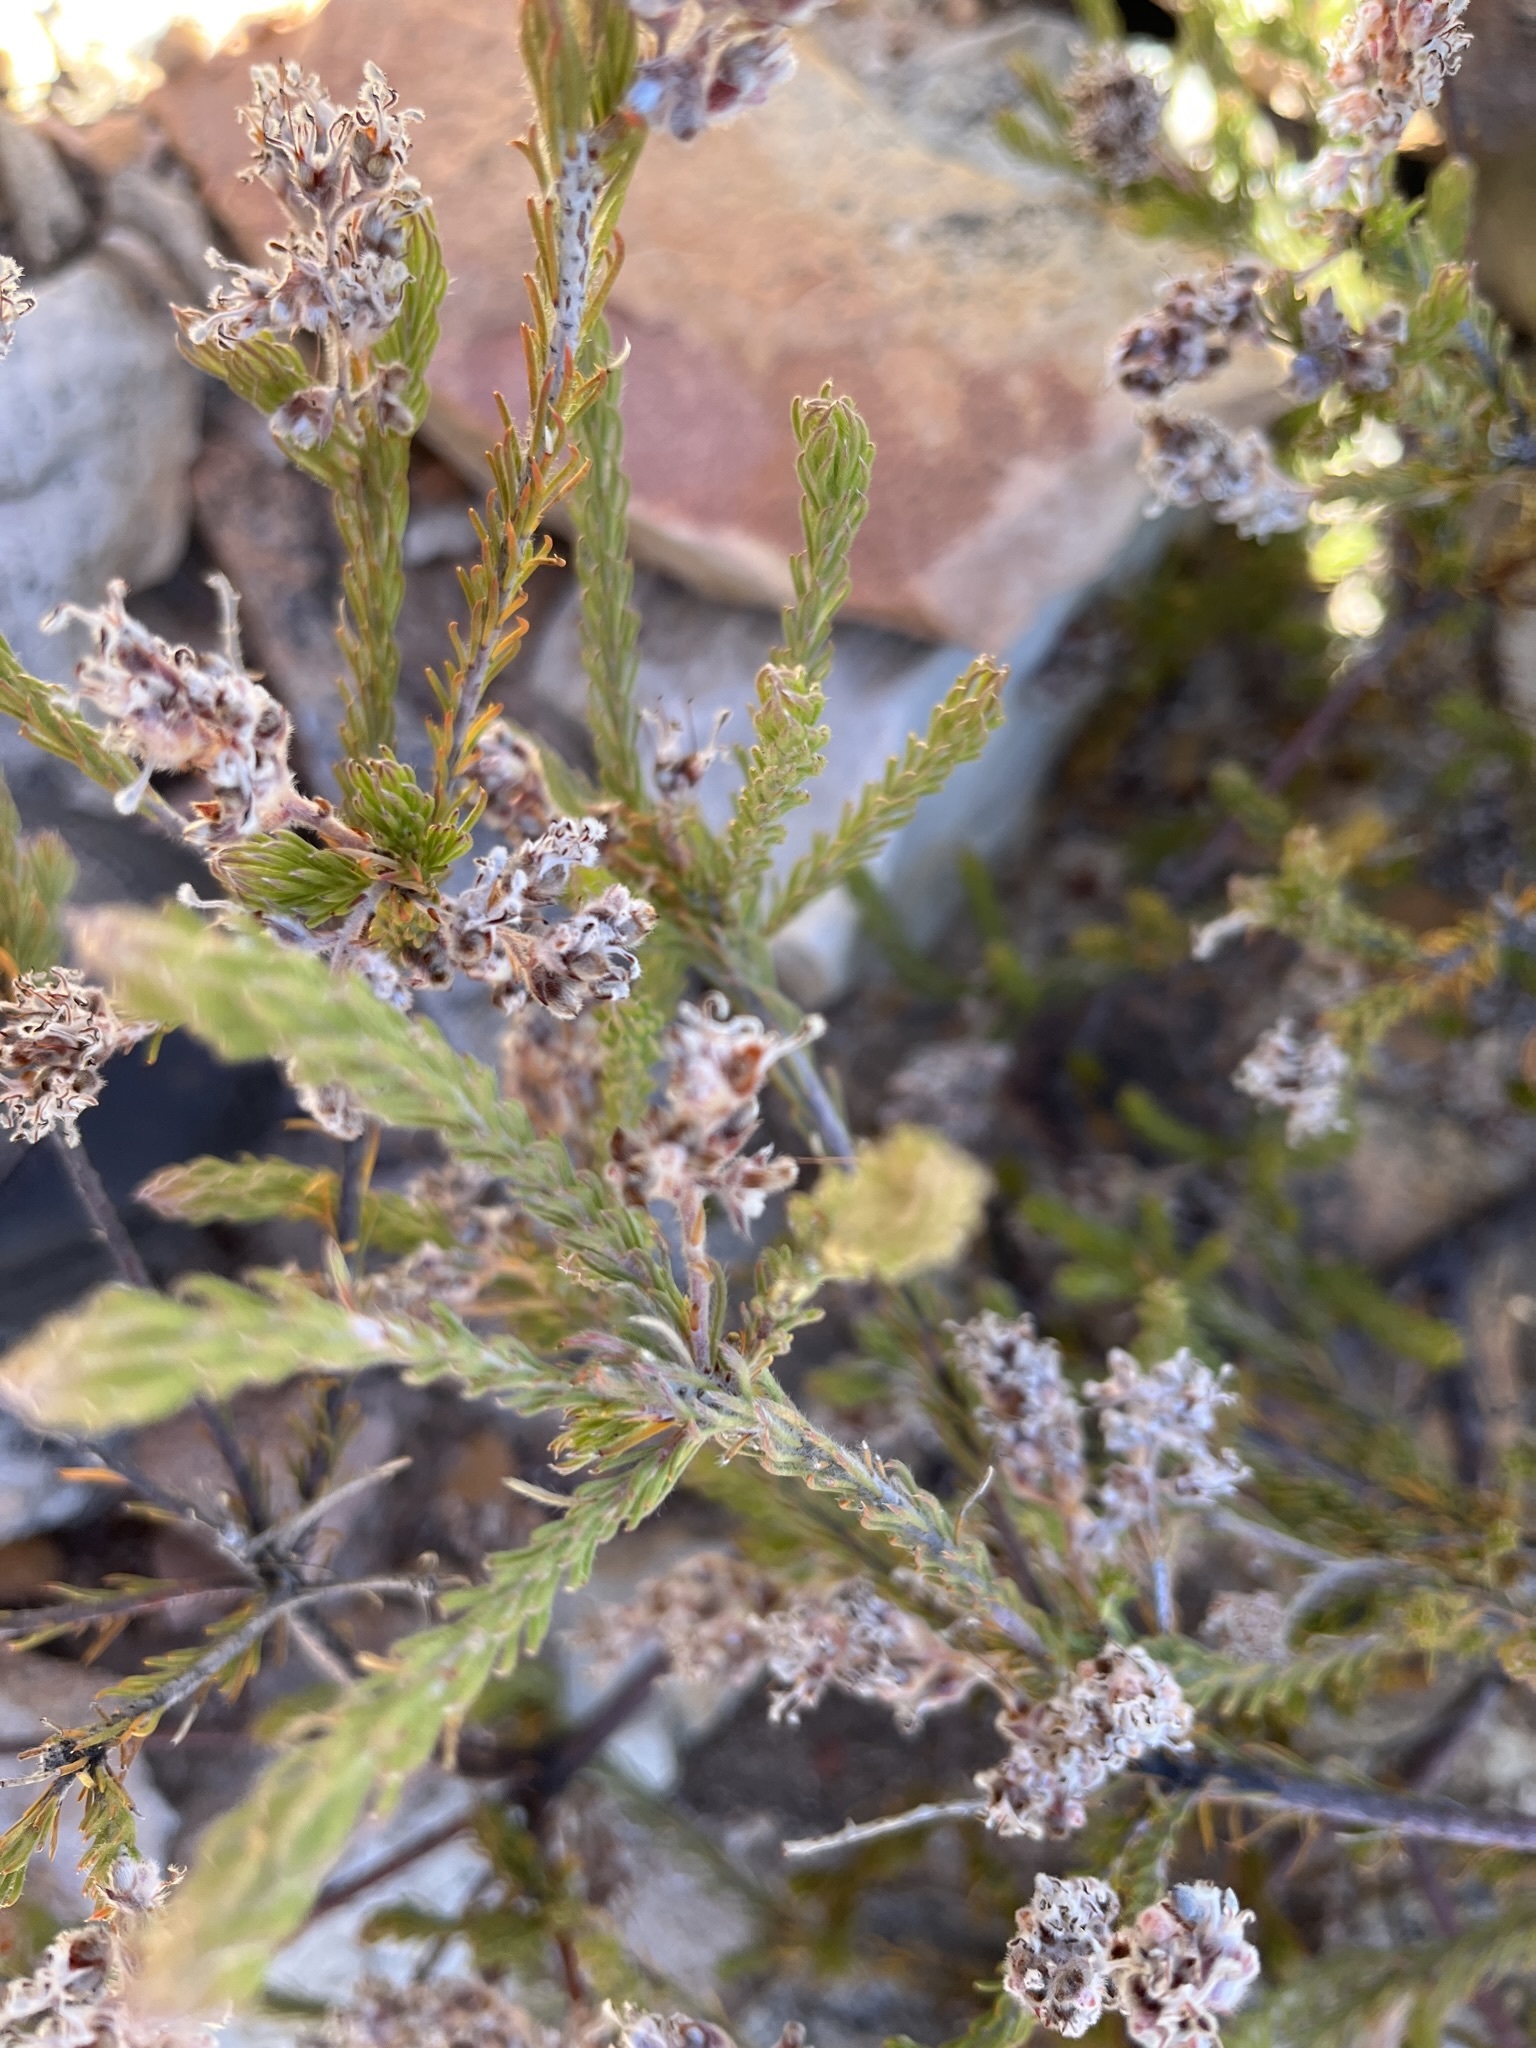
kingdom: Plantae
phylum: Tracheophyta
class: Magnoliopsida
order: Proteales
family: Proteaceae
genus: Spatalla
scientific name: Spatalla incurva
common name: Swan-head spoon
